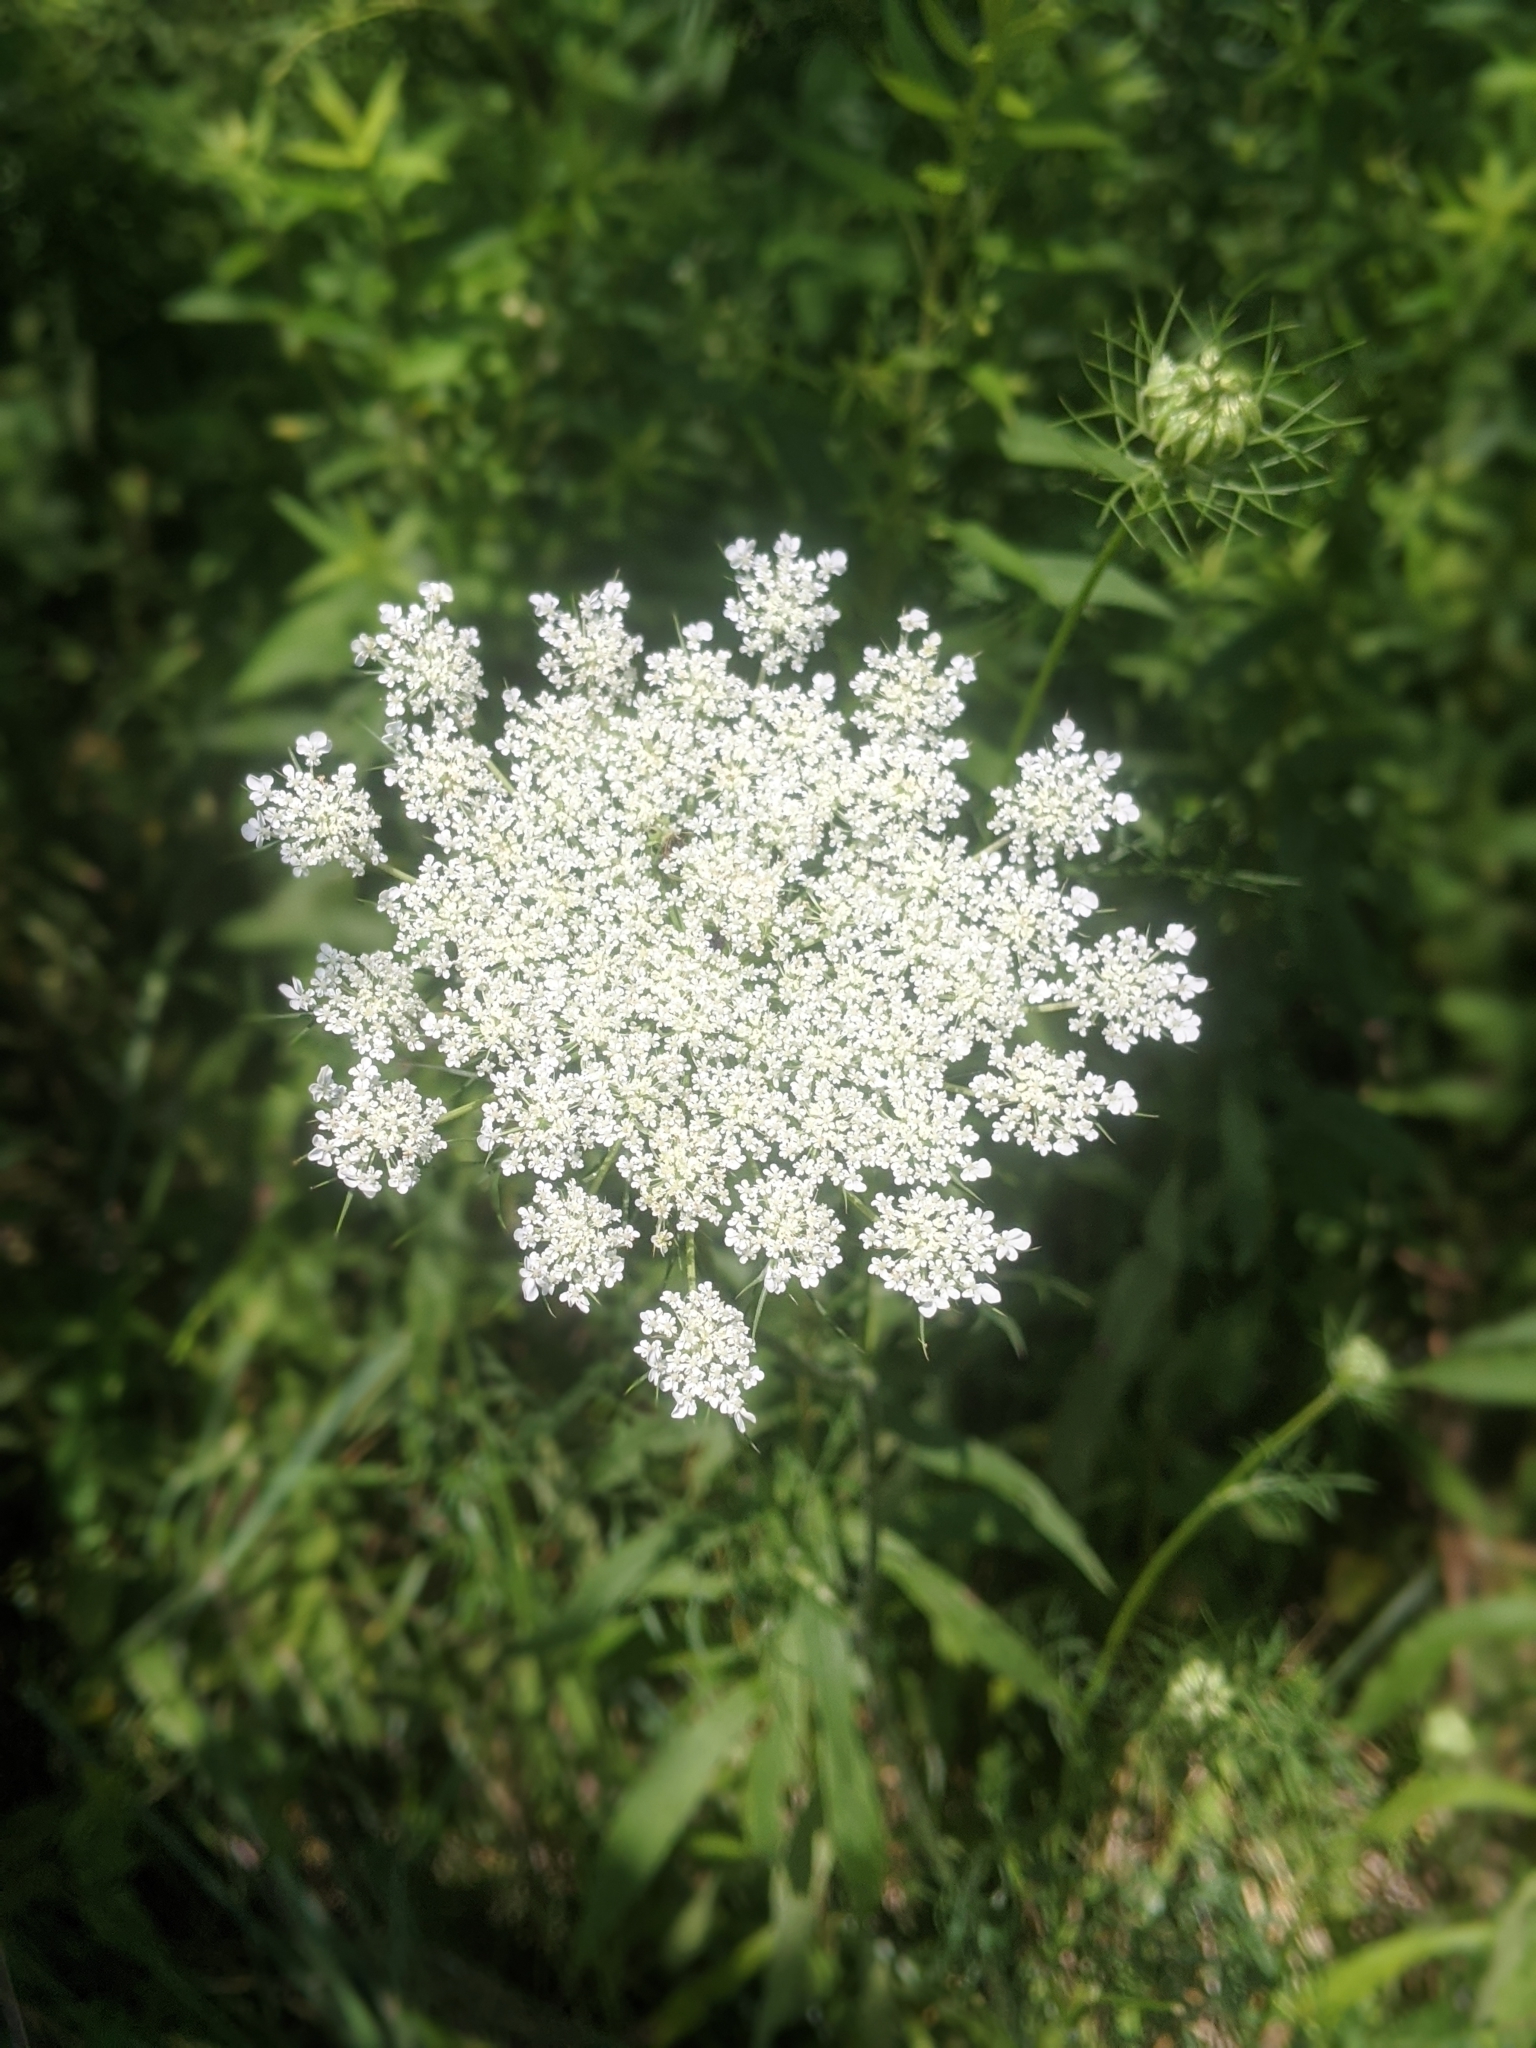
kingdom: Plantae
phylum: Tracheophyta
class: Magnoliopsida
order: Apiales
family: Apiaceae
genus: Daucus
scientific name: Daucus carota
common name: Wild carrot
